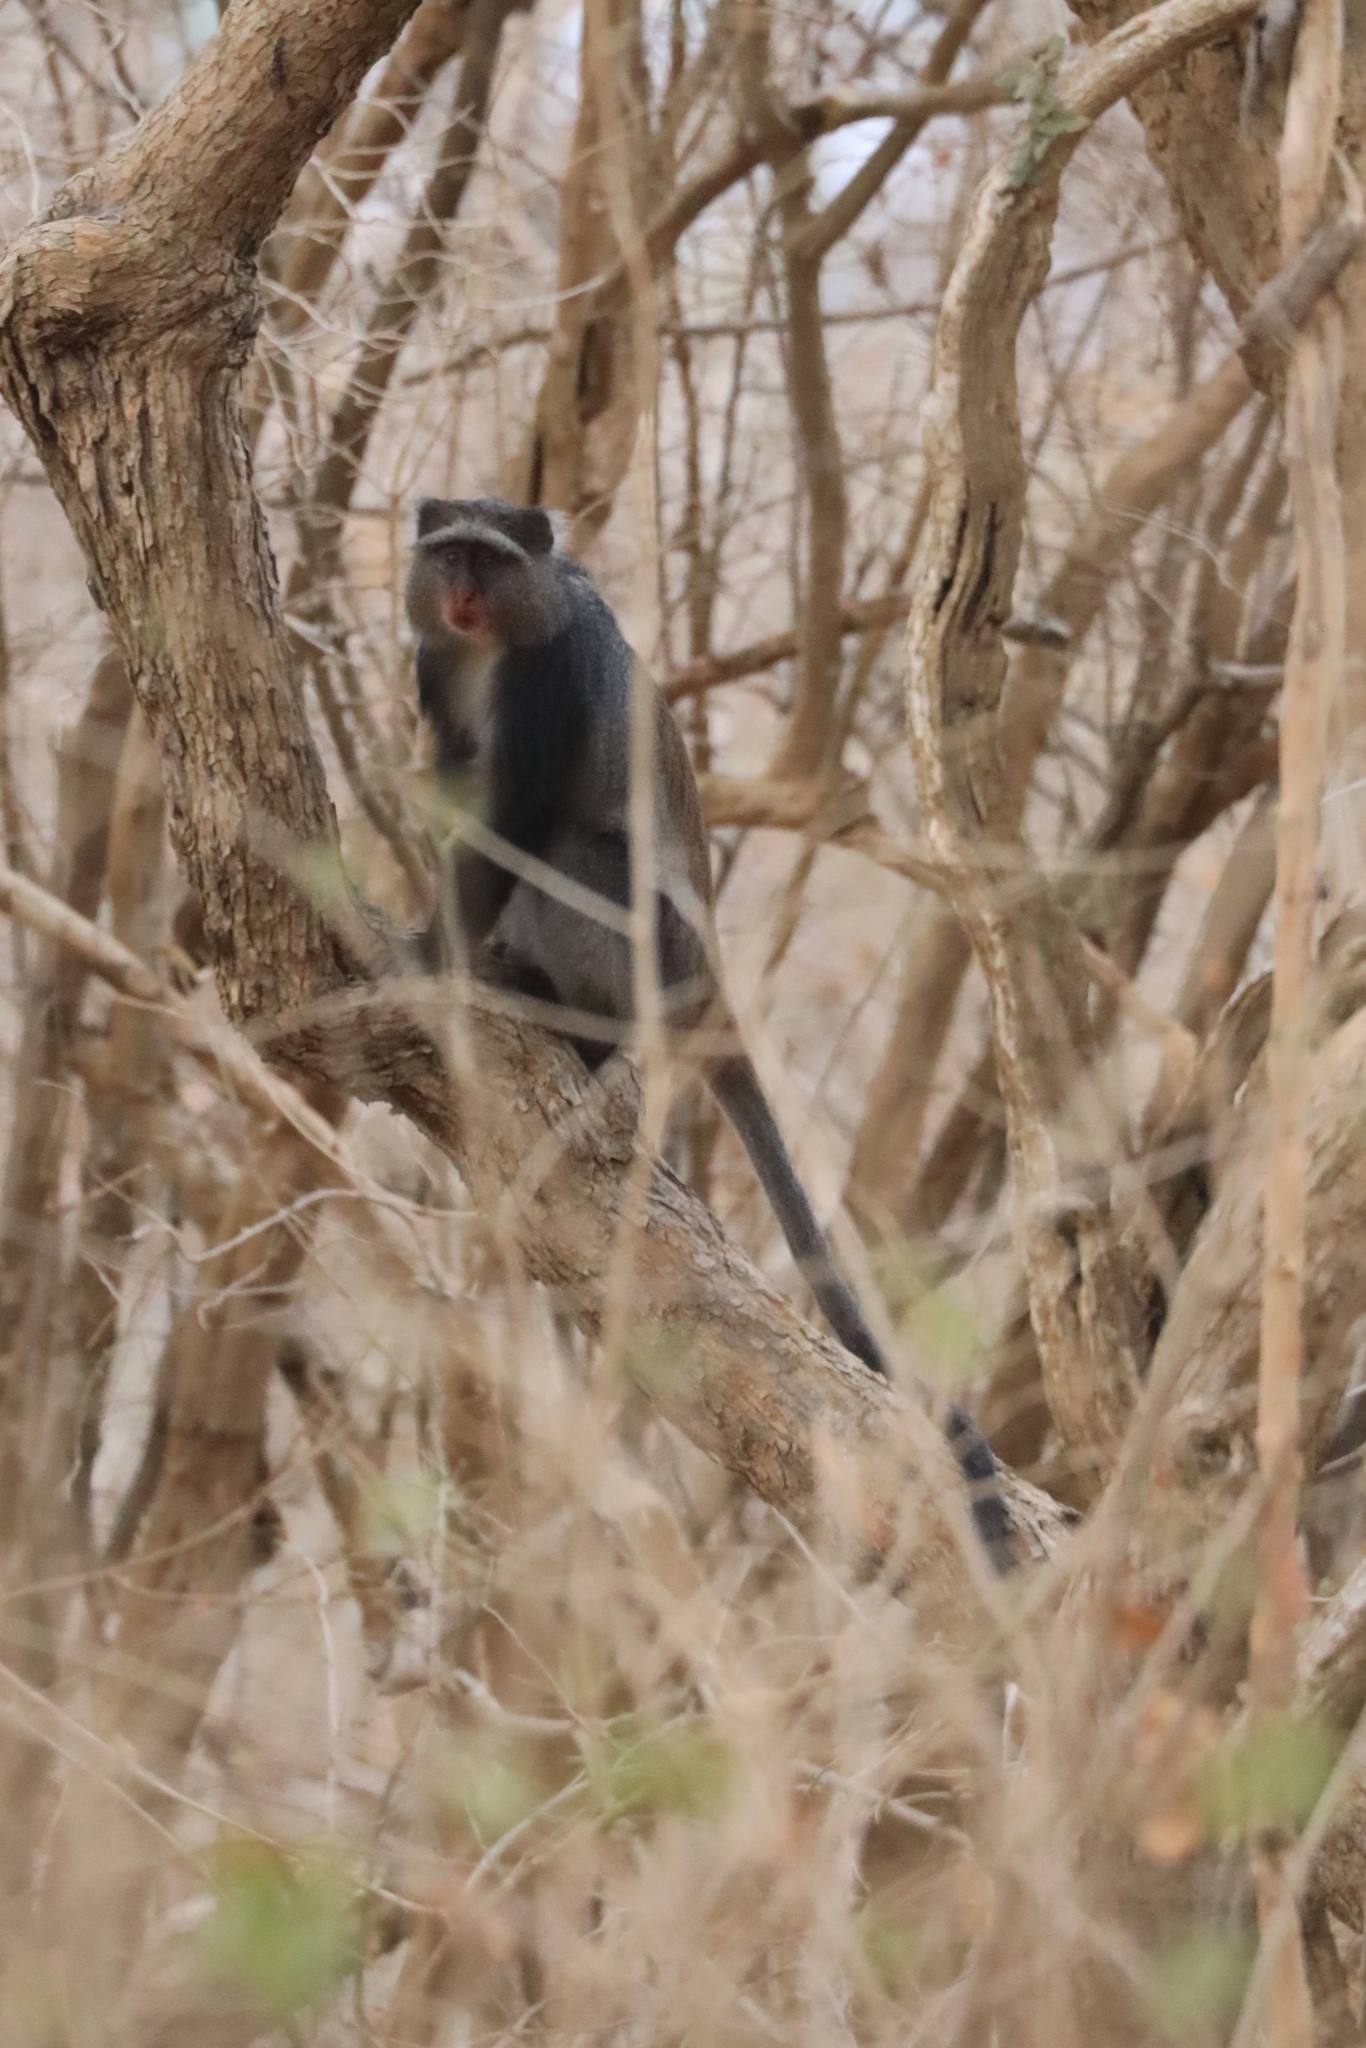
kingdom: Animalia
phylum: Chordata
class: Mammalia
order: Primates
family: Cercopithecidae
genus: Cercopithecus
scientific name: Cercopithecus mitis
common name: Blue monkey
